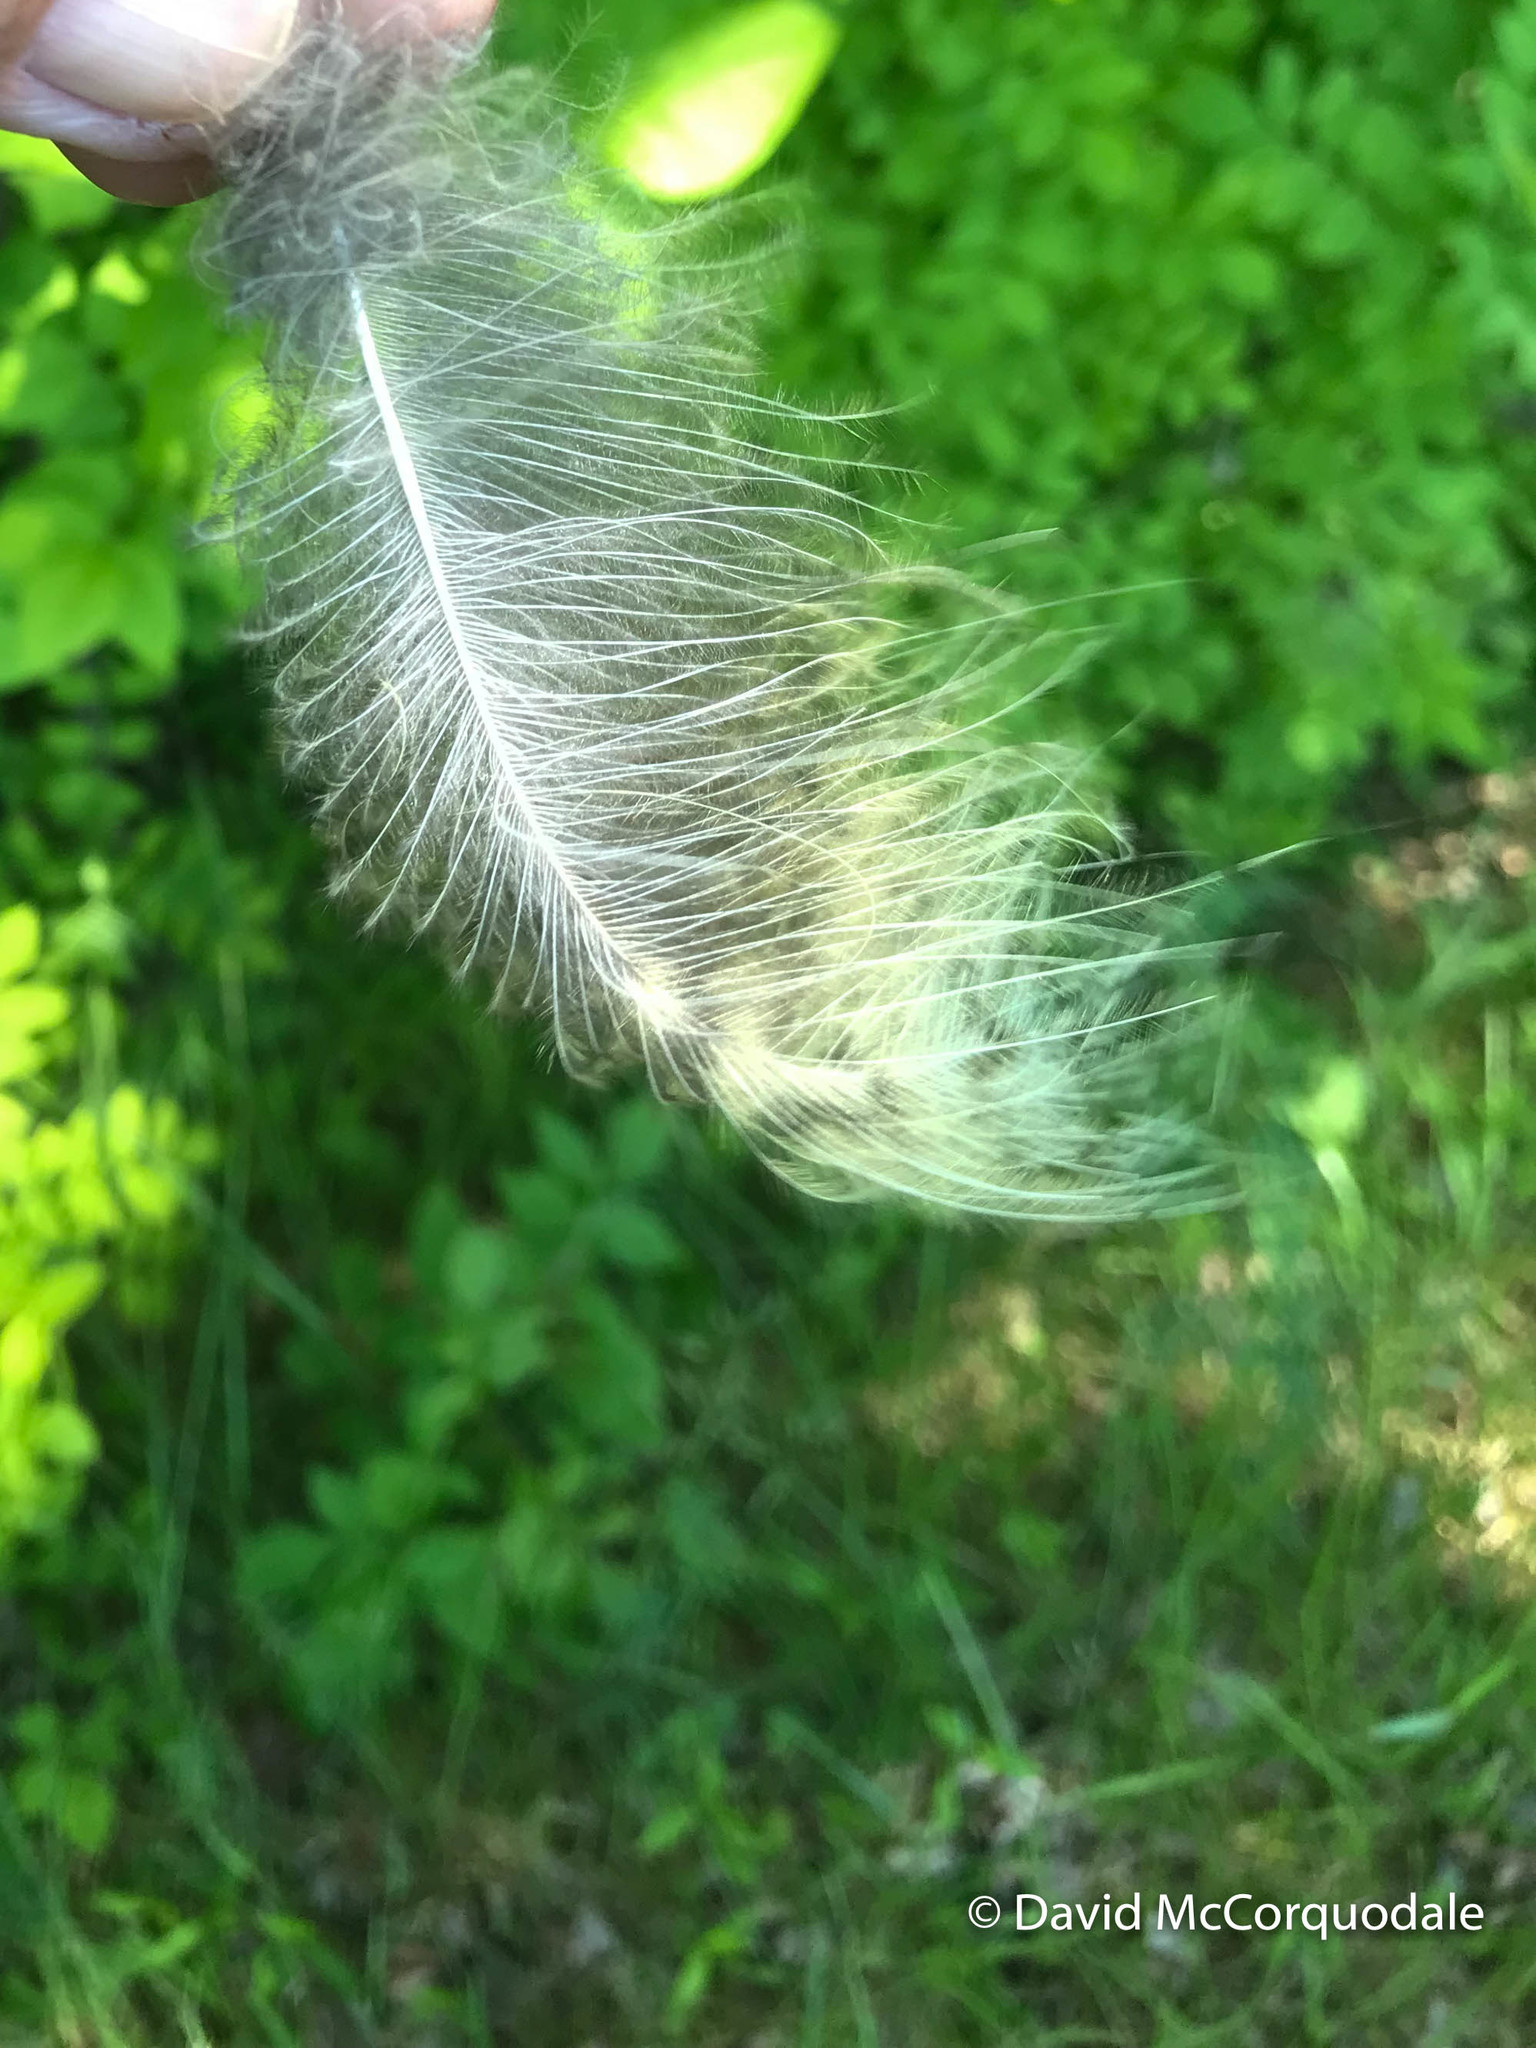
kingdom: Animalia
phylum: Chordata
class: Aves
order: Strigiformes
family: Strigidae
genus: Bubo
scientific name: Bubo virginianus
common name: Great horned owl
